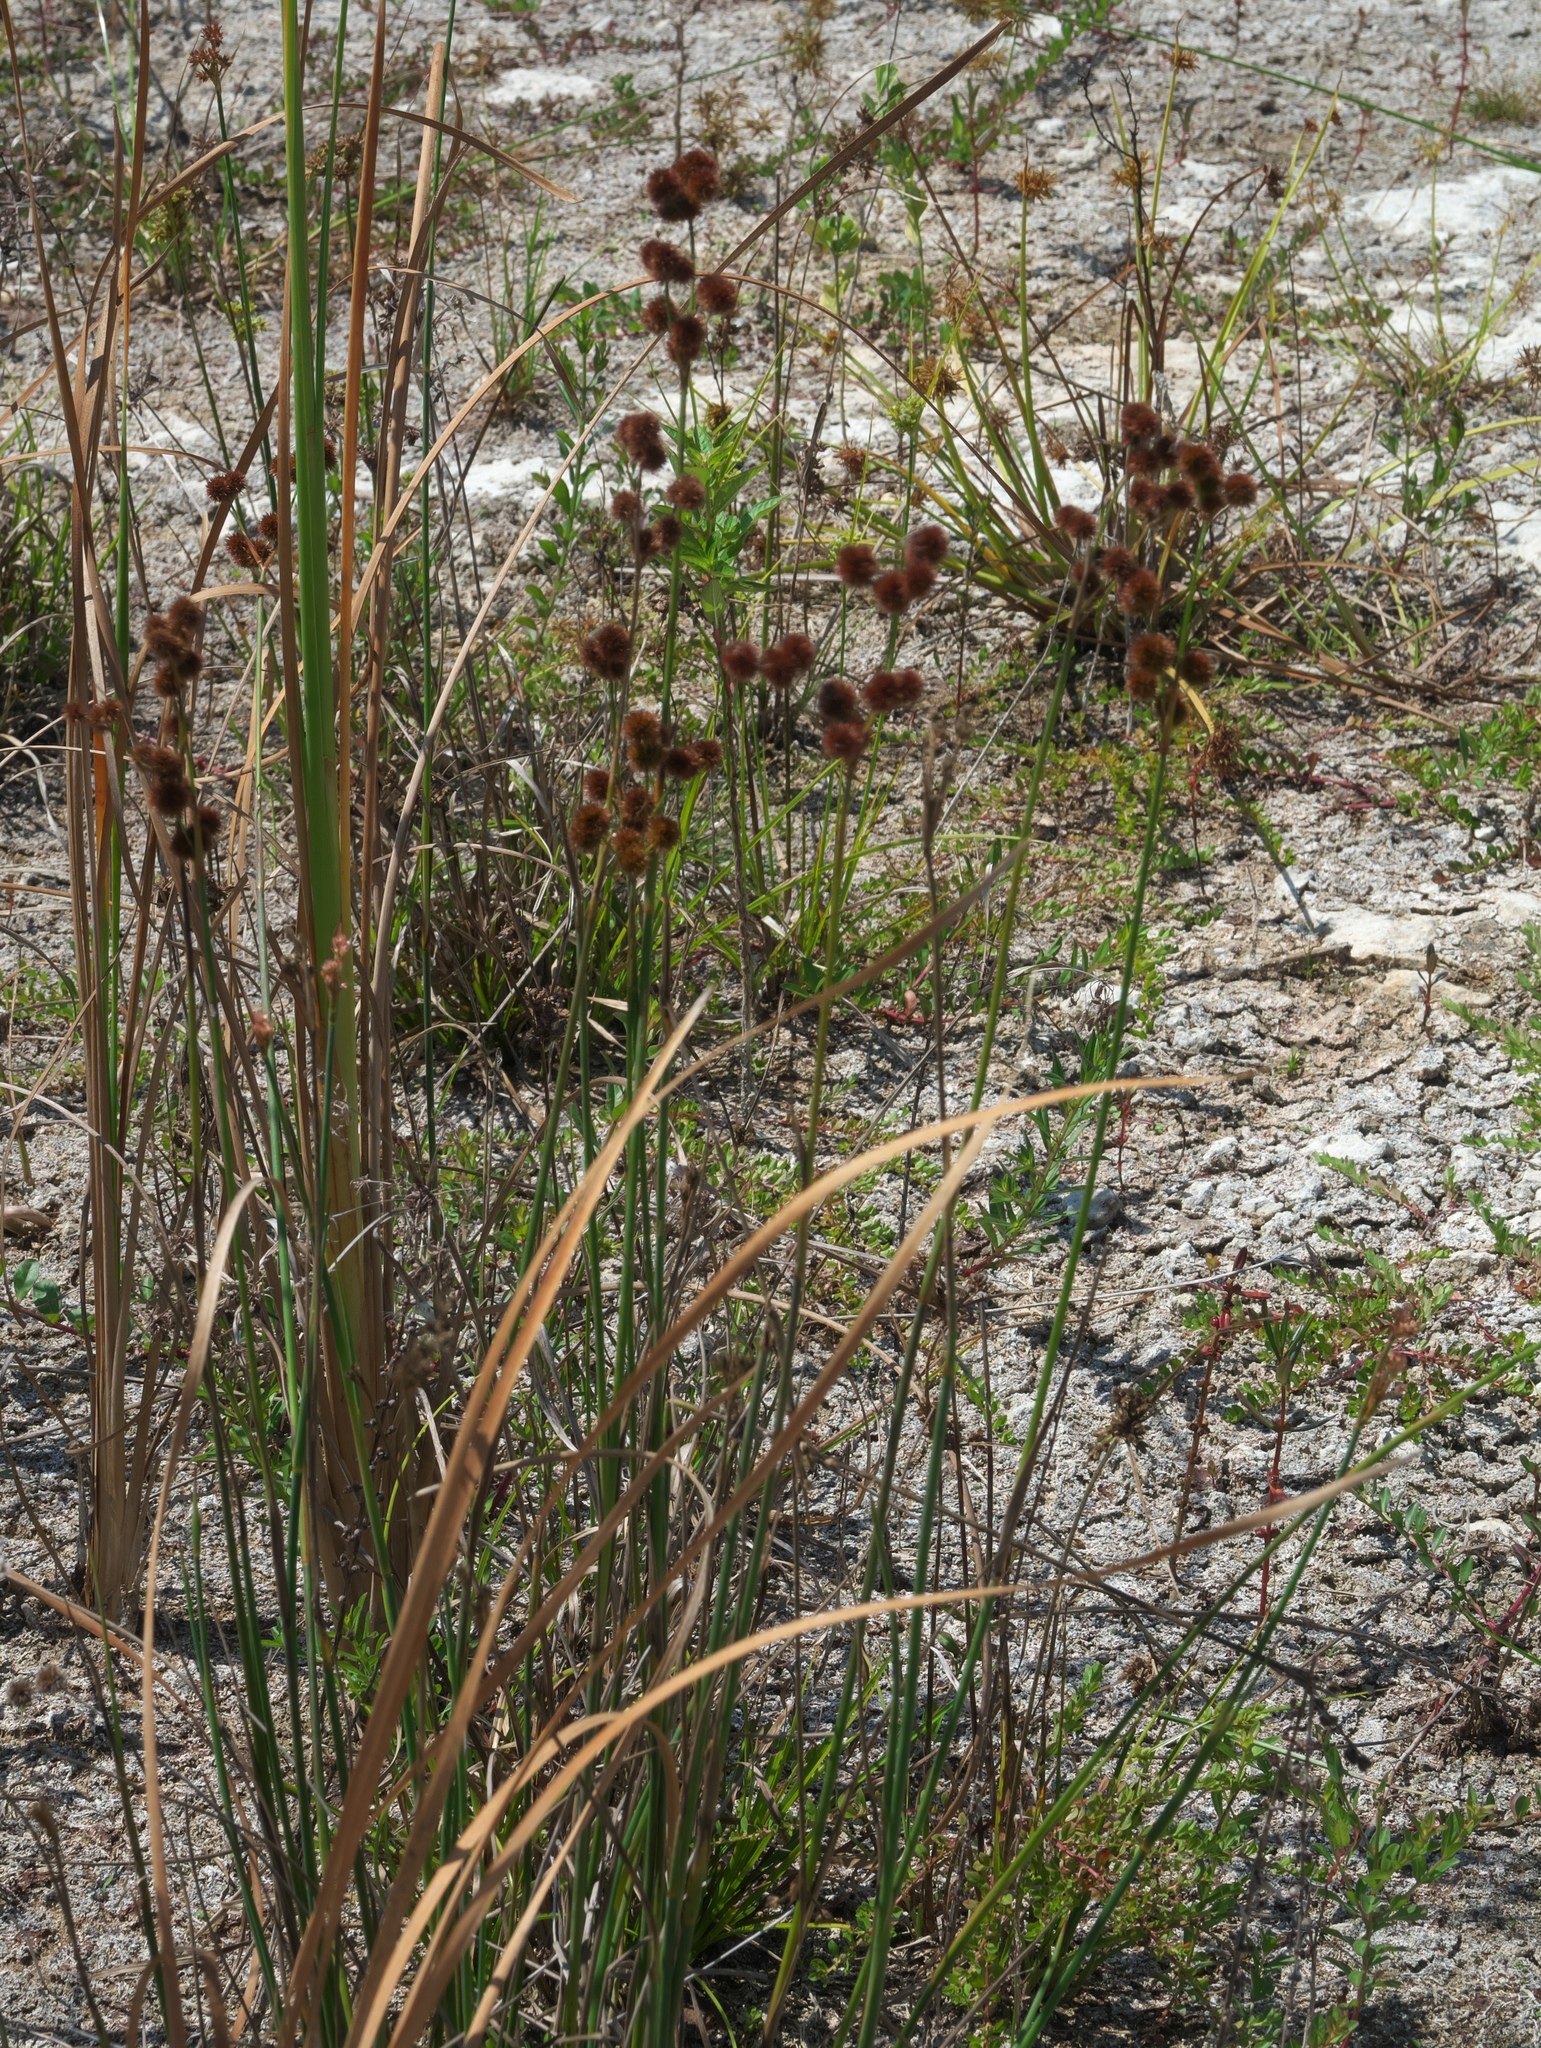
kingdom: Plantae
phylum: Tracheophyta
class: Liliopsida
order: Poales
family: Juncaceae
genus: Juncus
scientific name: Juncus megacephalus
